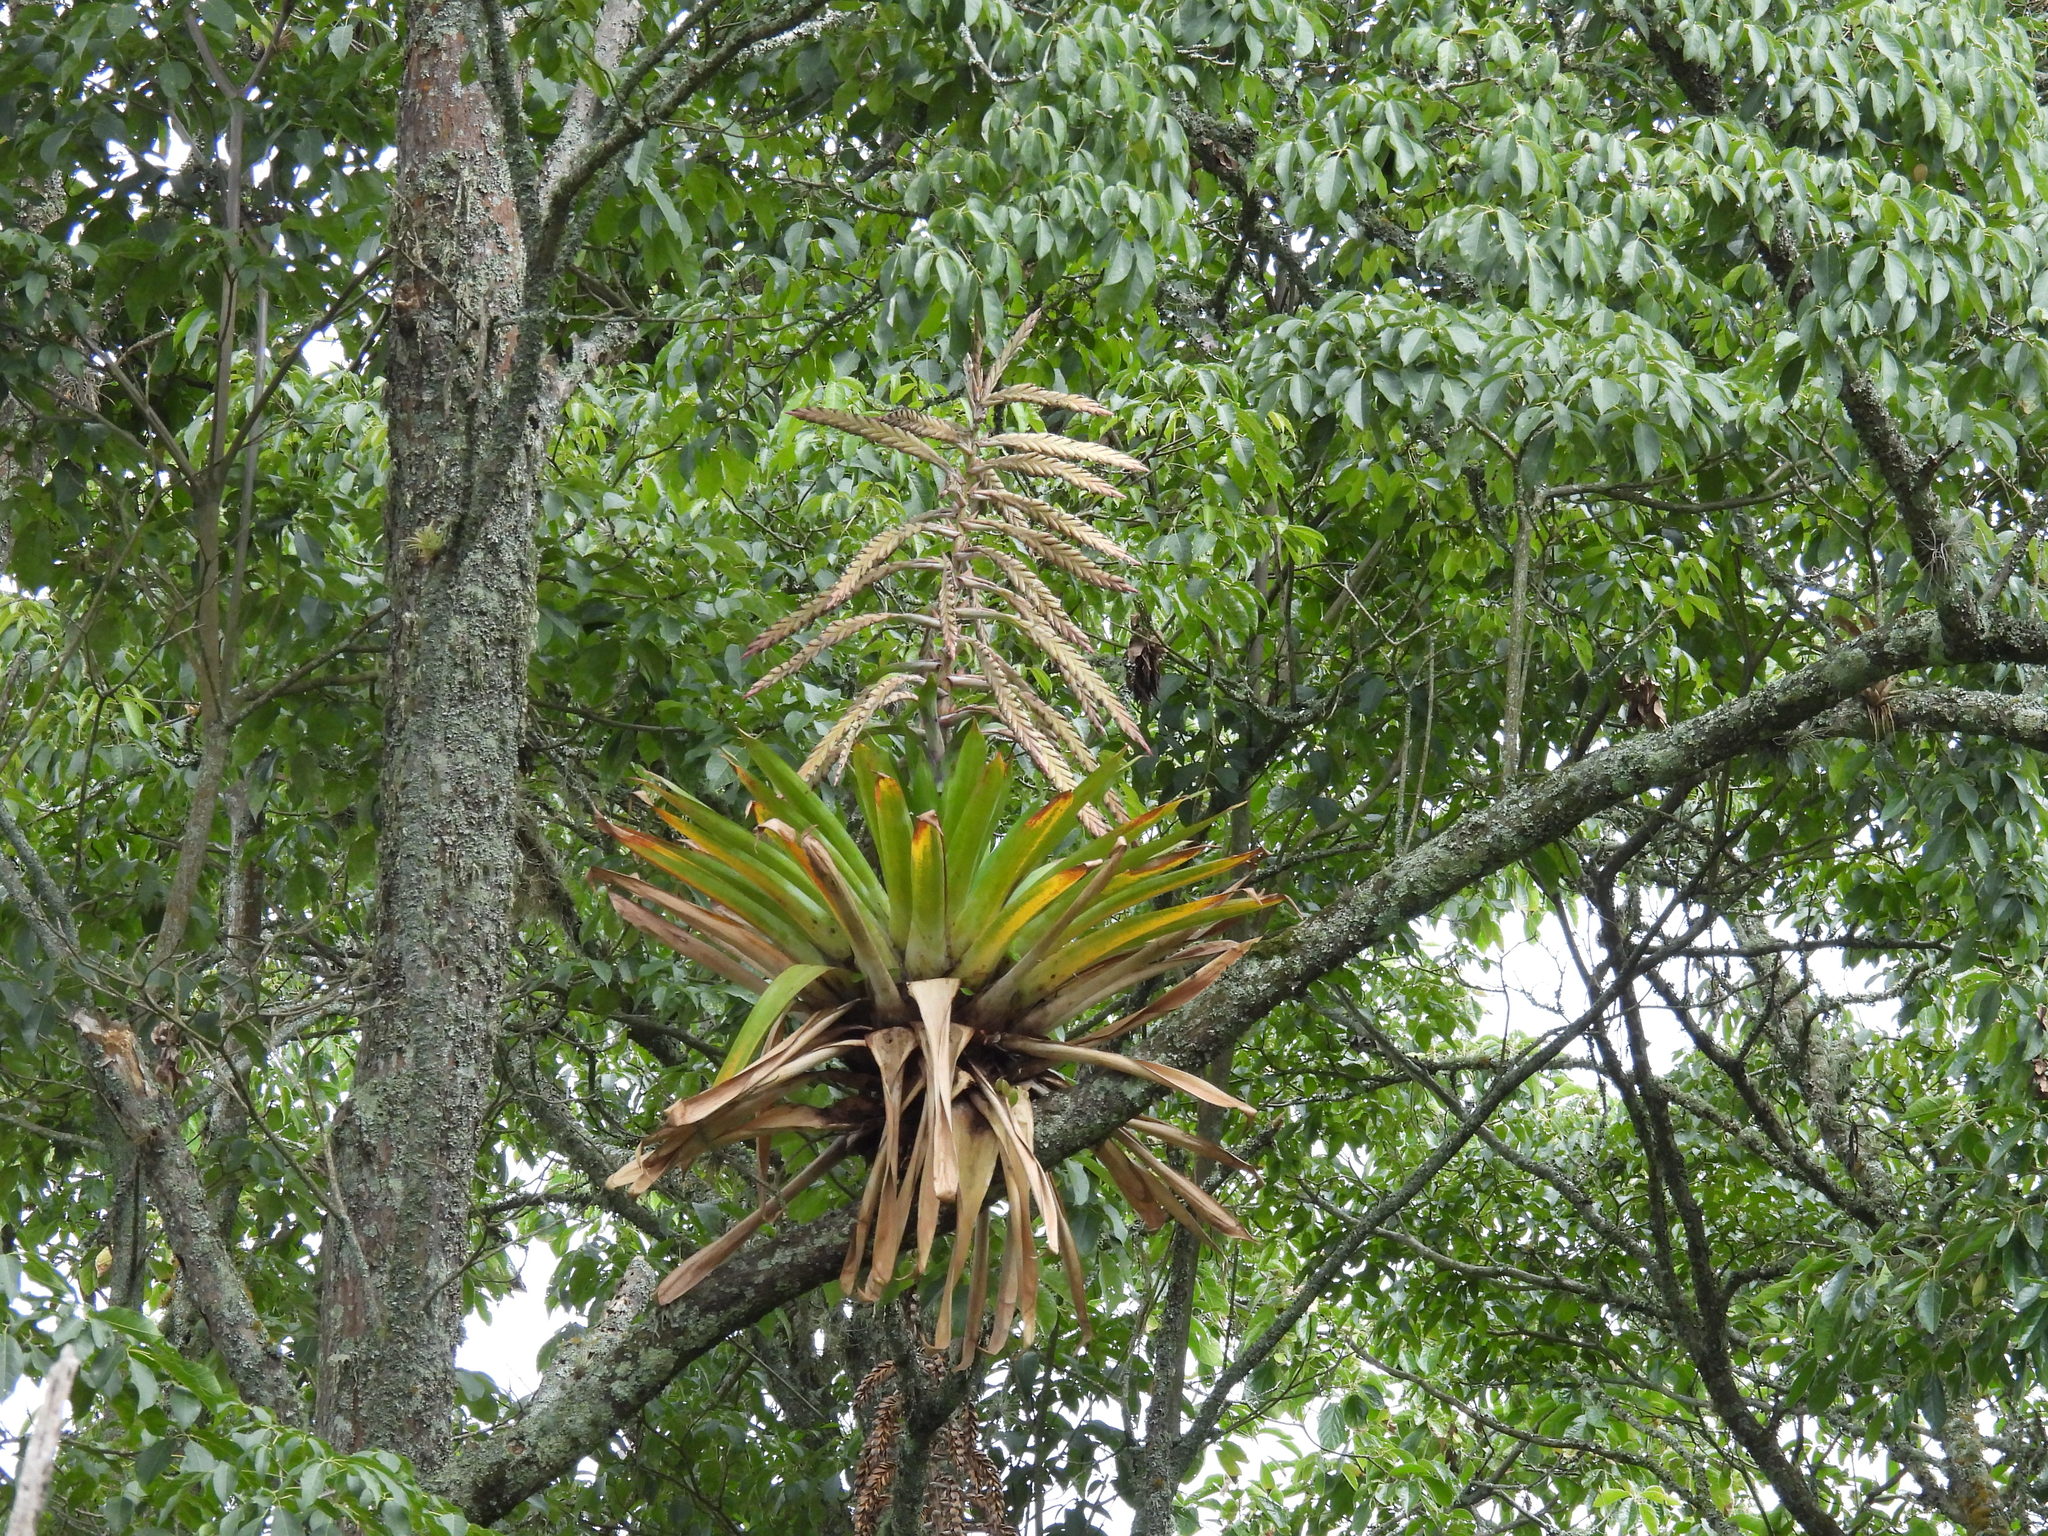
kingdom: Plantae
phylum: Tracheophyta
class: Liliopsida
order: Poales
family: Bromeliaceae
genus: Tillandsia
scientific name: Tillandsia fendleri
